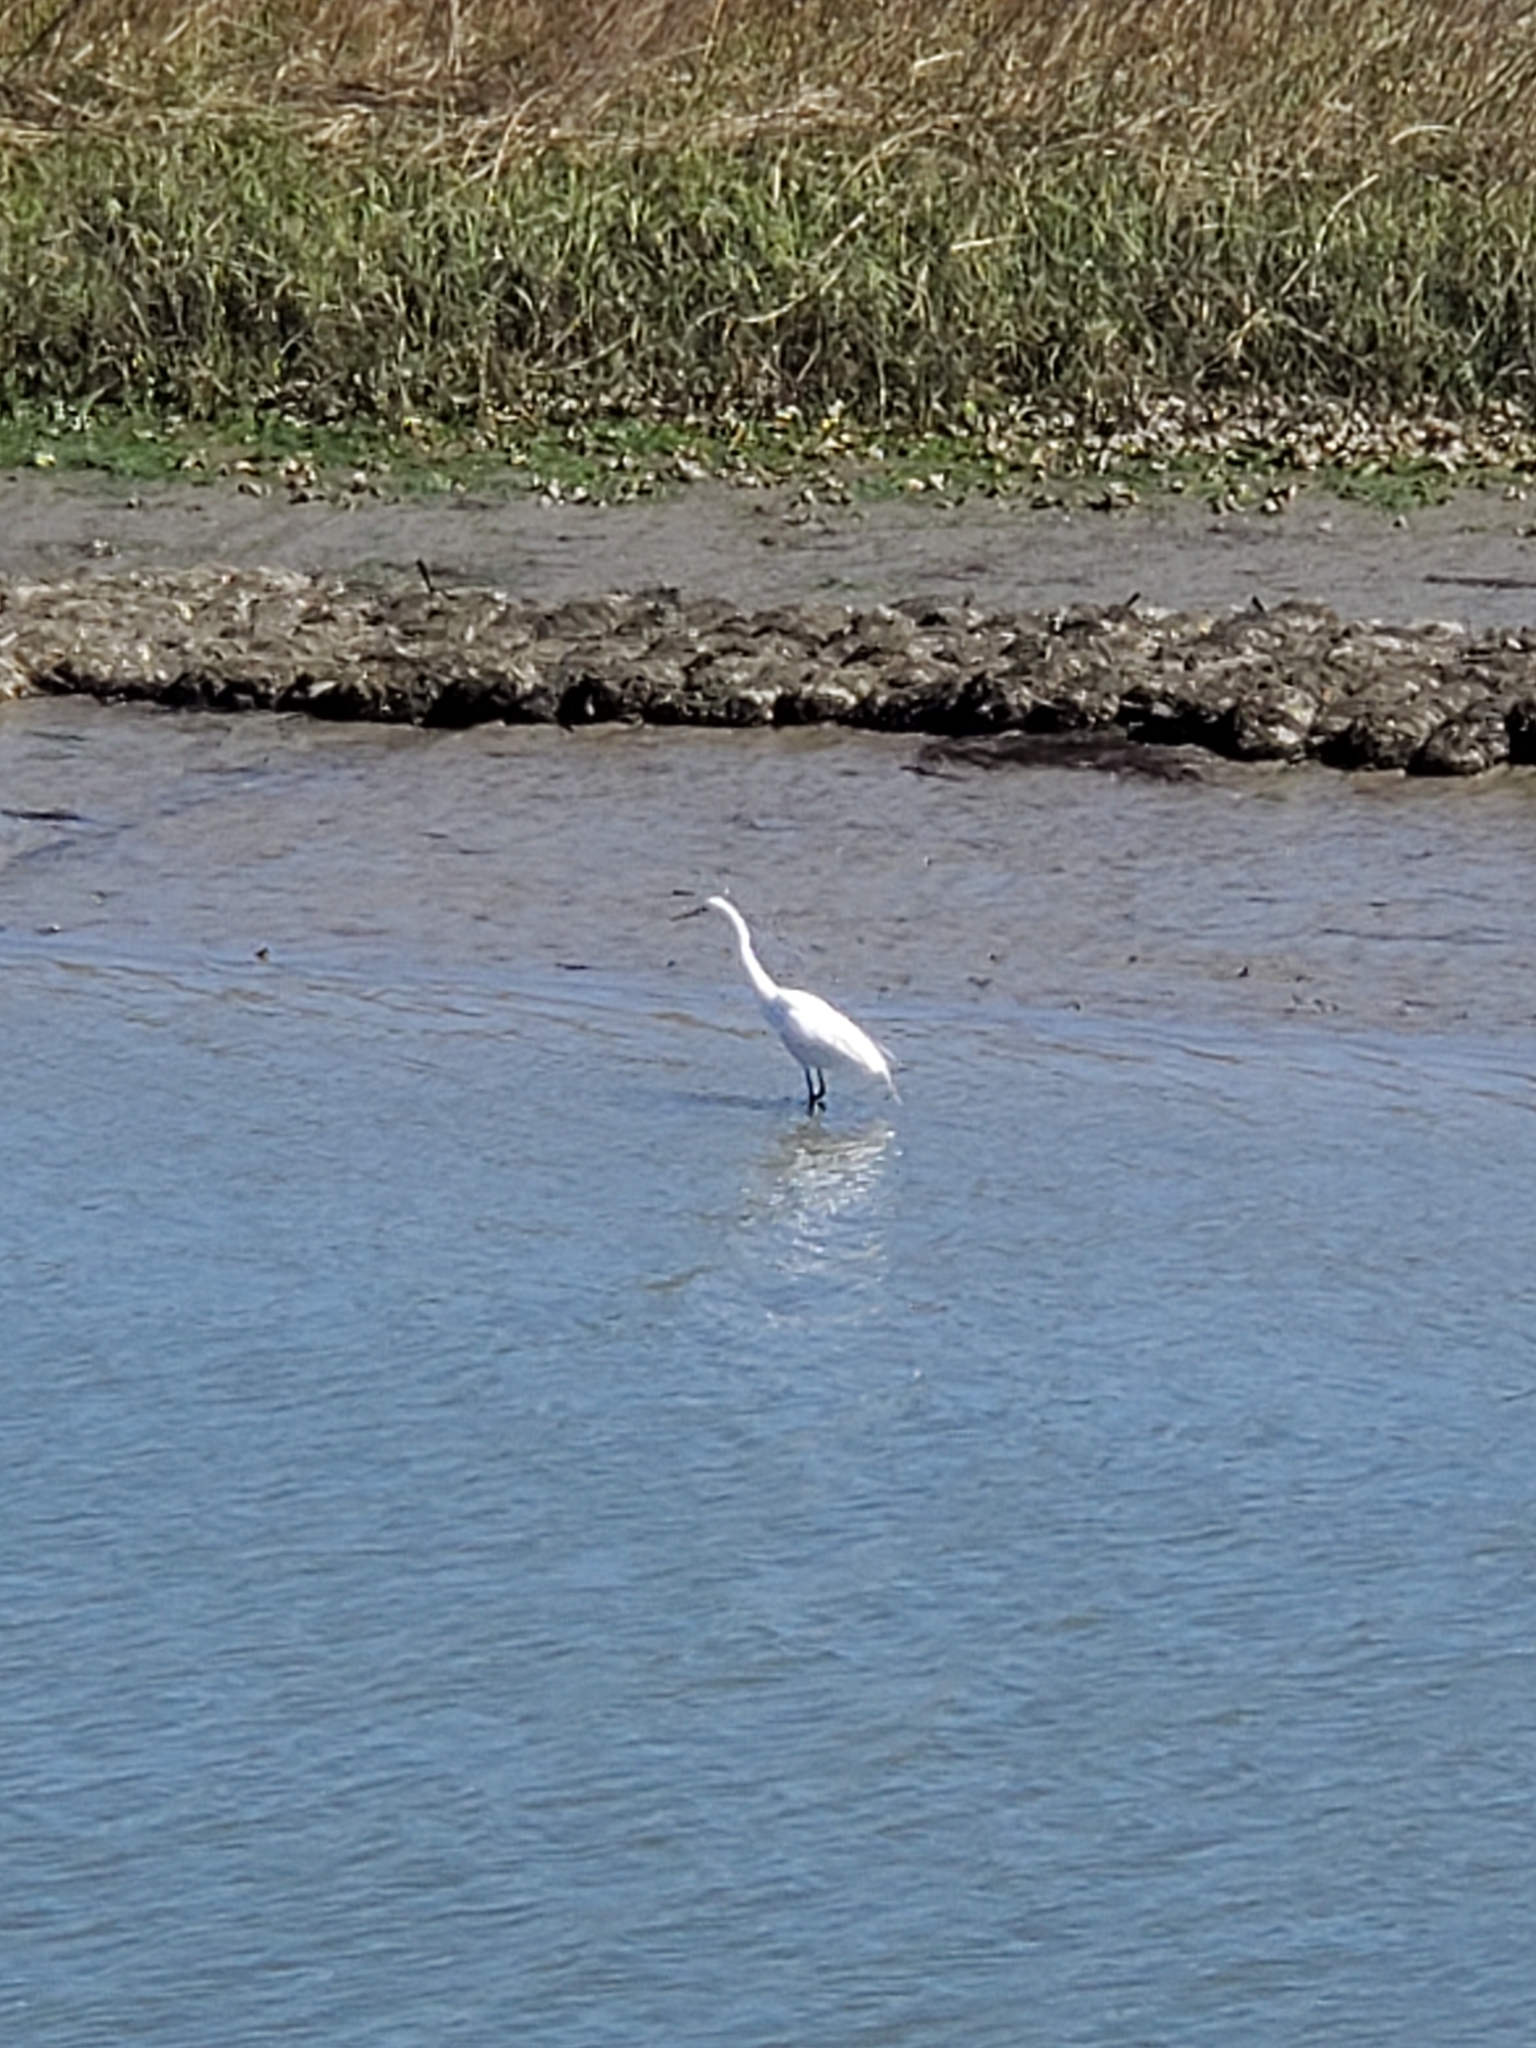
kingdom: Animalia
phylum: Chordata
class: Aves
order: Pelecaniformes
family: Ardeidae
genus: Ardea
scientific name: Ardea alba
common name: Great egret
